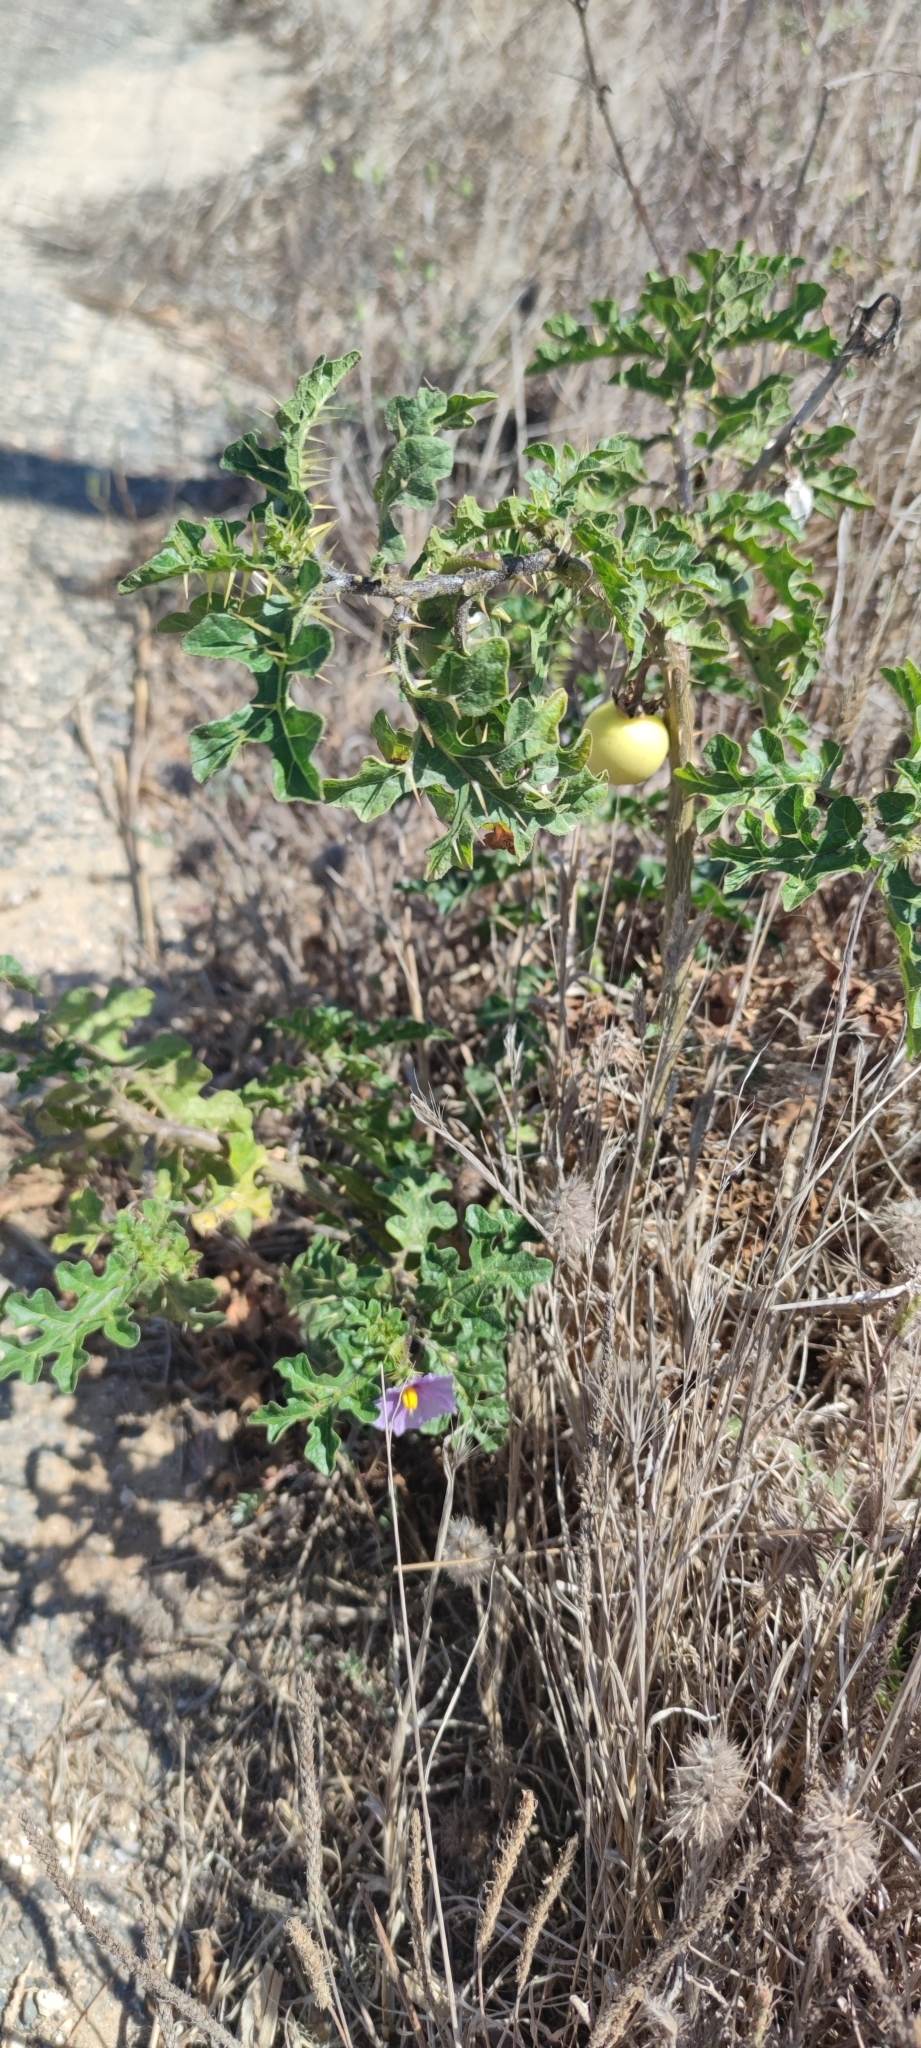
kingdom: Plantae
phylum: Tracheophyta
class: Magnoliopsida
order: Solanales
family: Solanaceae
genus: Solanum
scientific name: Solanum linnaeanum
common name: Nightshade
